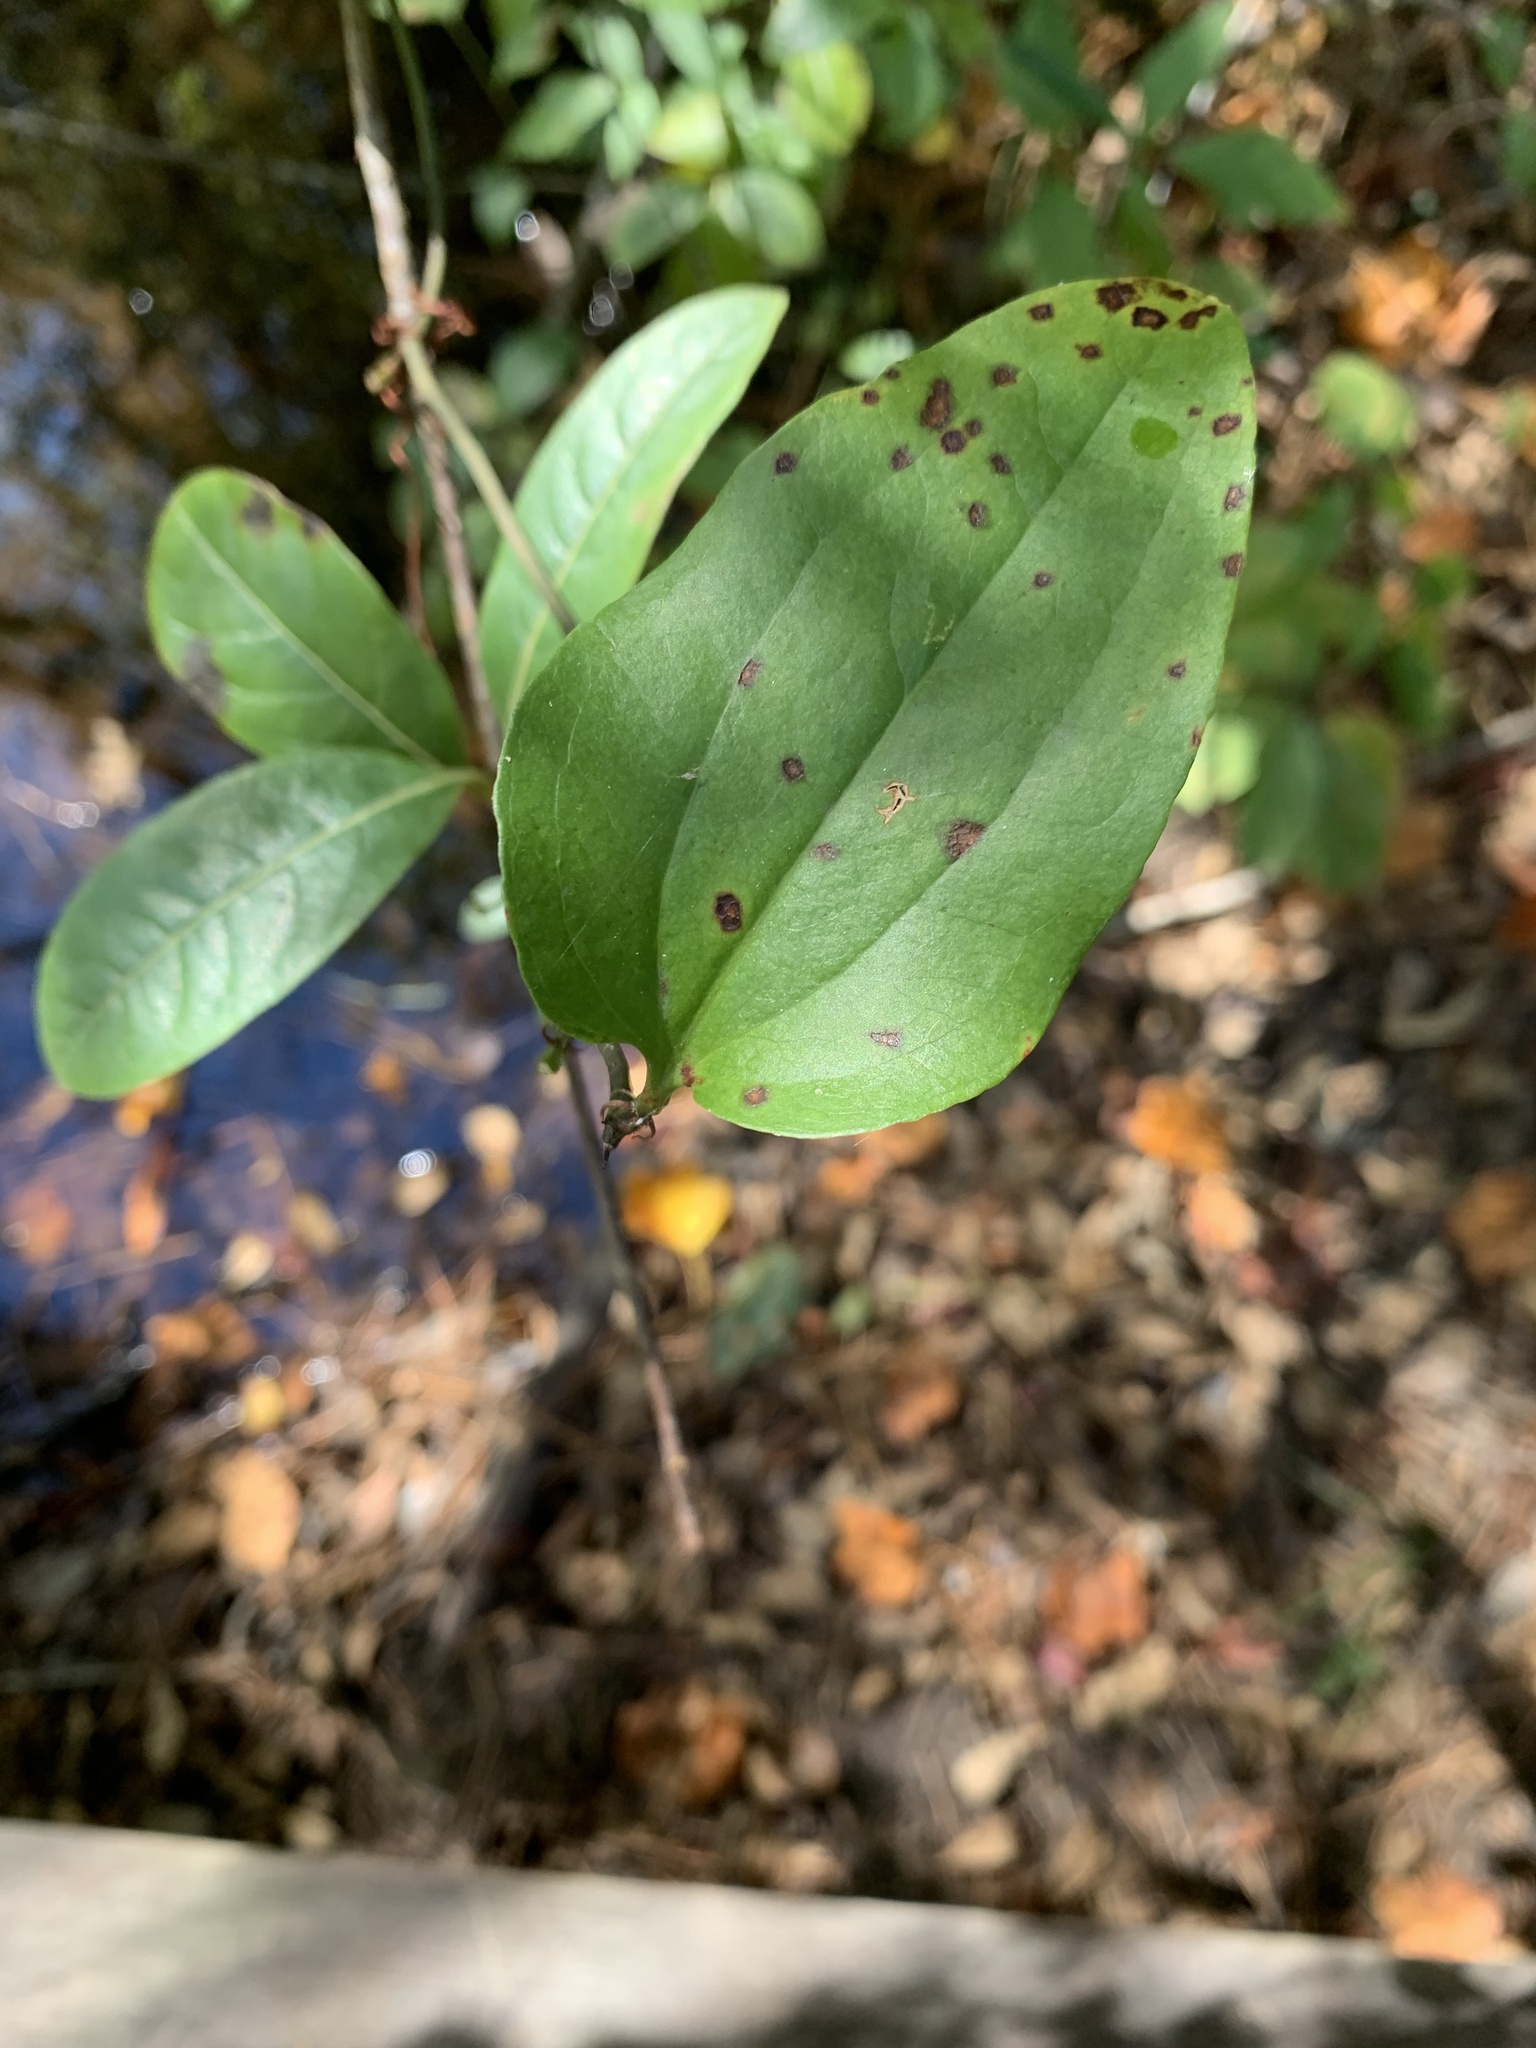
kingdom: Plantae
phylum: Tracheophyta
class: Liliopsida
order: Liliales
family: Smilacaceae
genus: Smilax
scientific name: Smilax walteri
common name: Coral greenbrier
